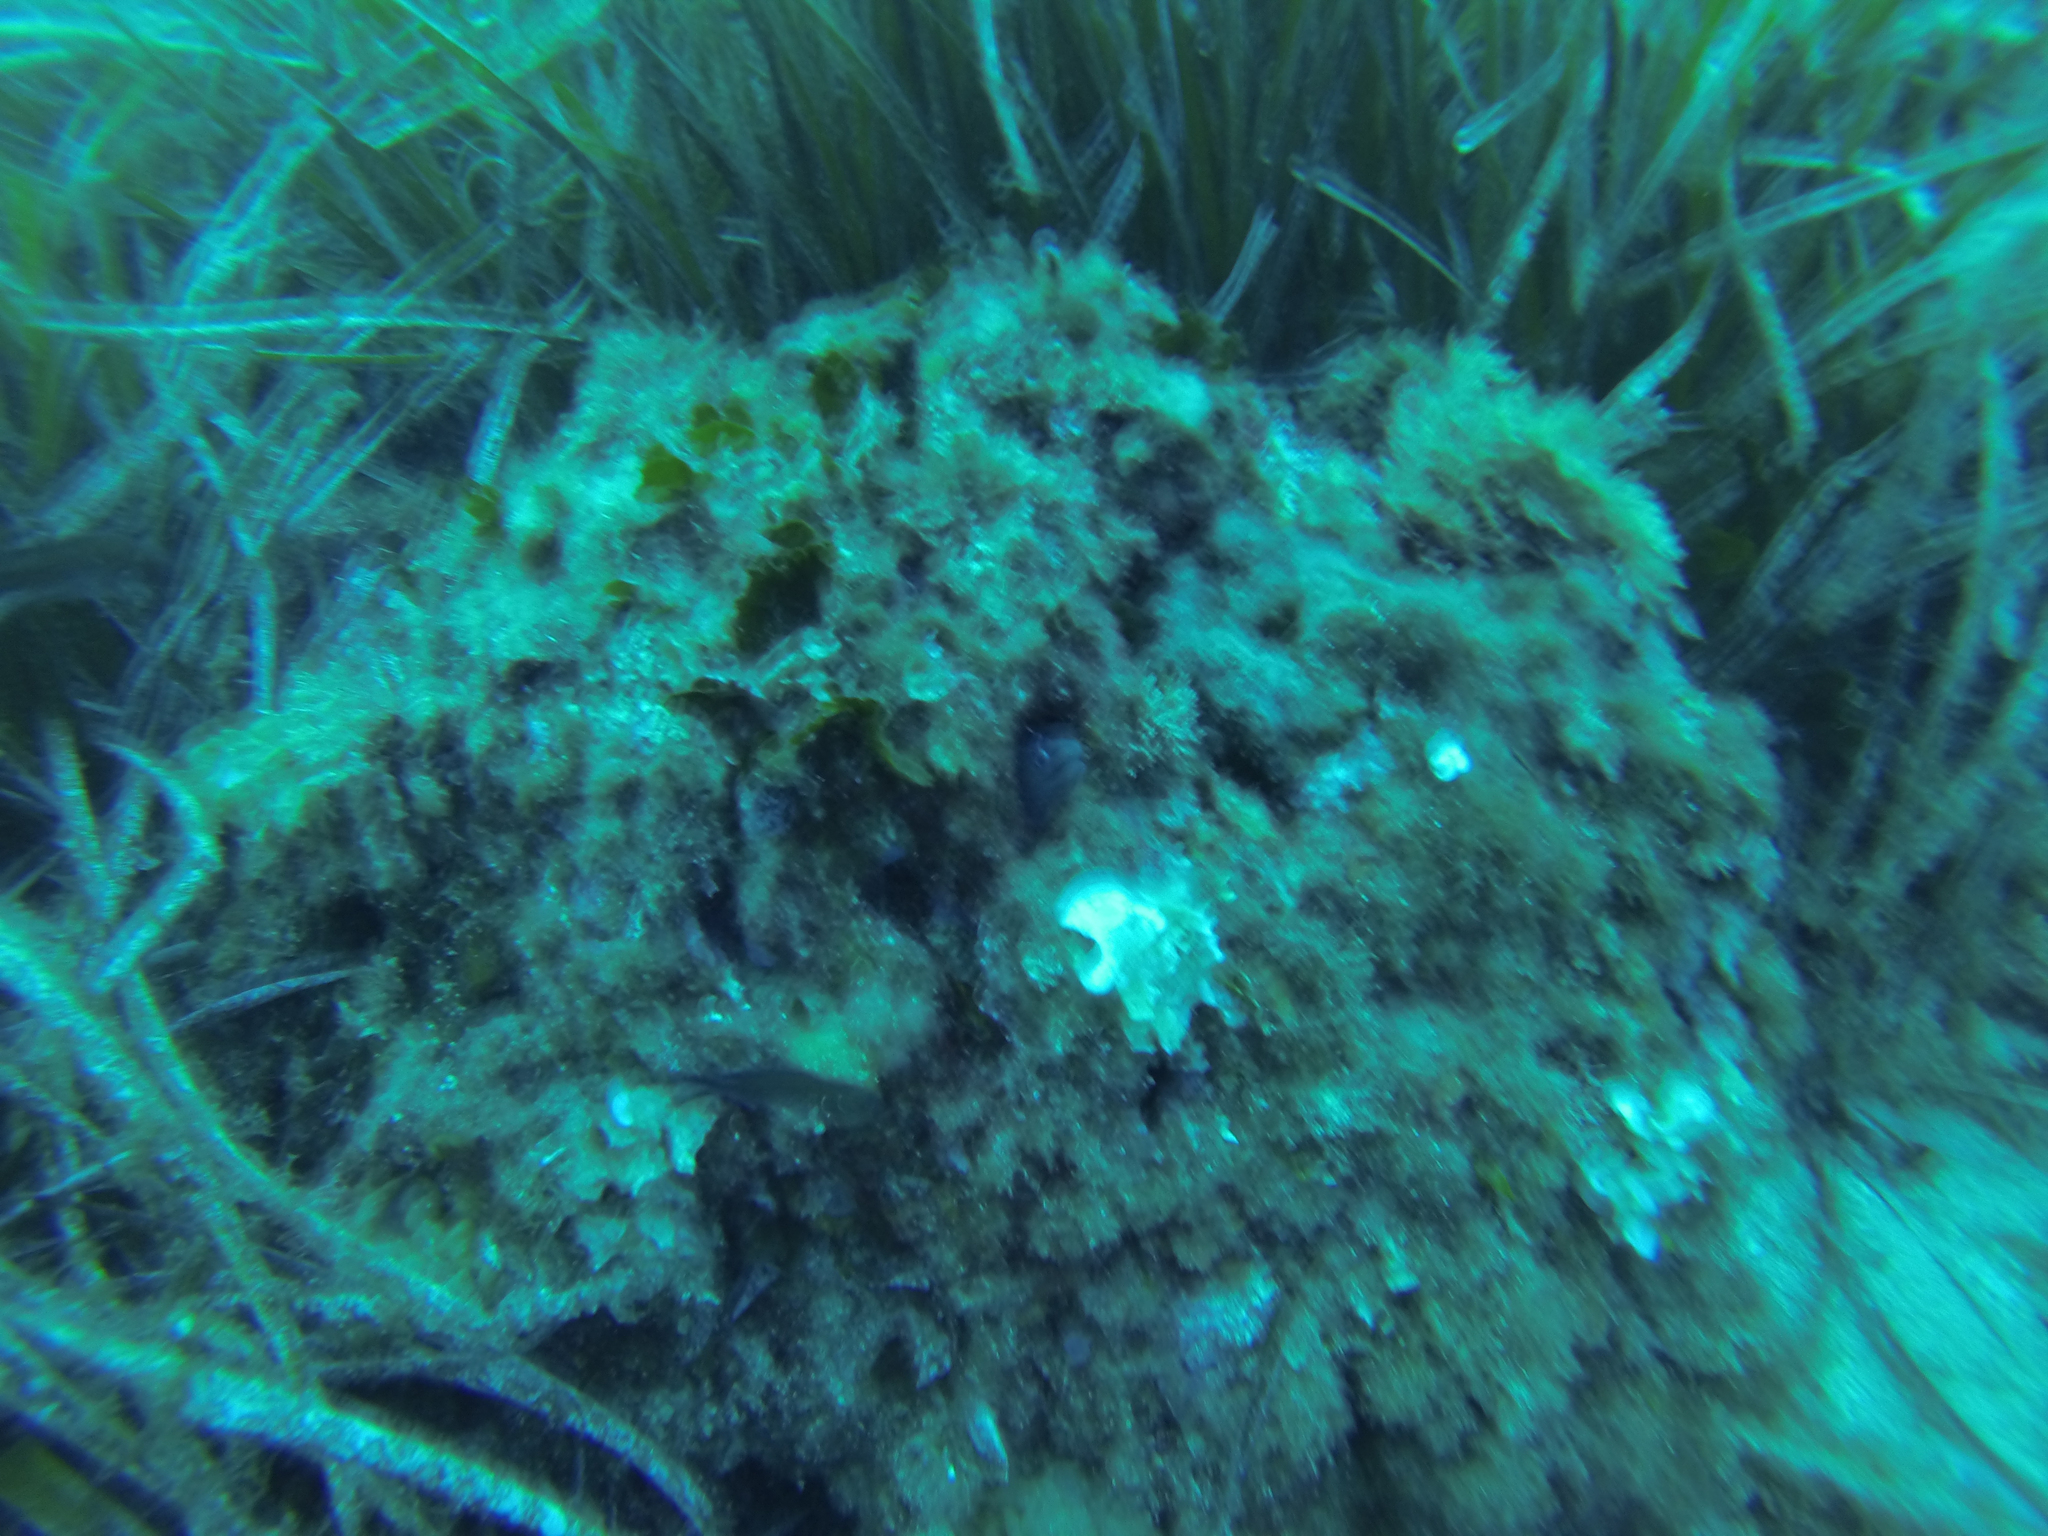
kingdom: Animalia
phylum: Chordata
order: Anguilliformes
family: Muraenidae
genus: Muraena
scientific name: Muraena helena
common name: Mediterranean moray
